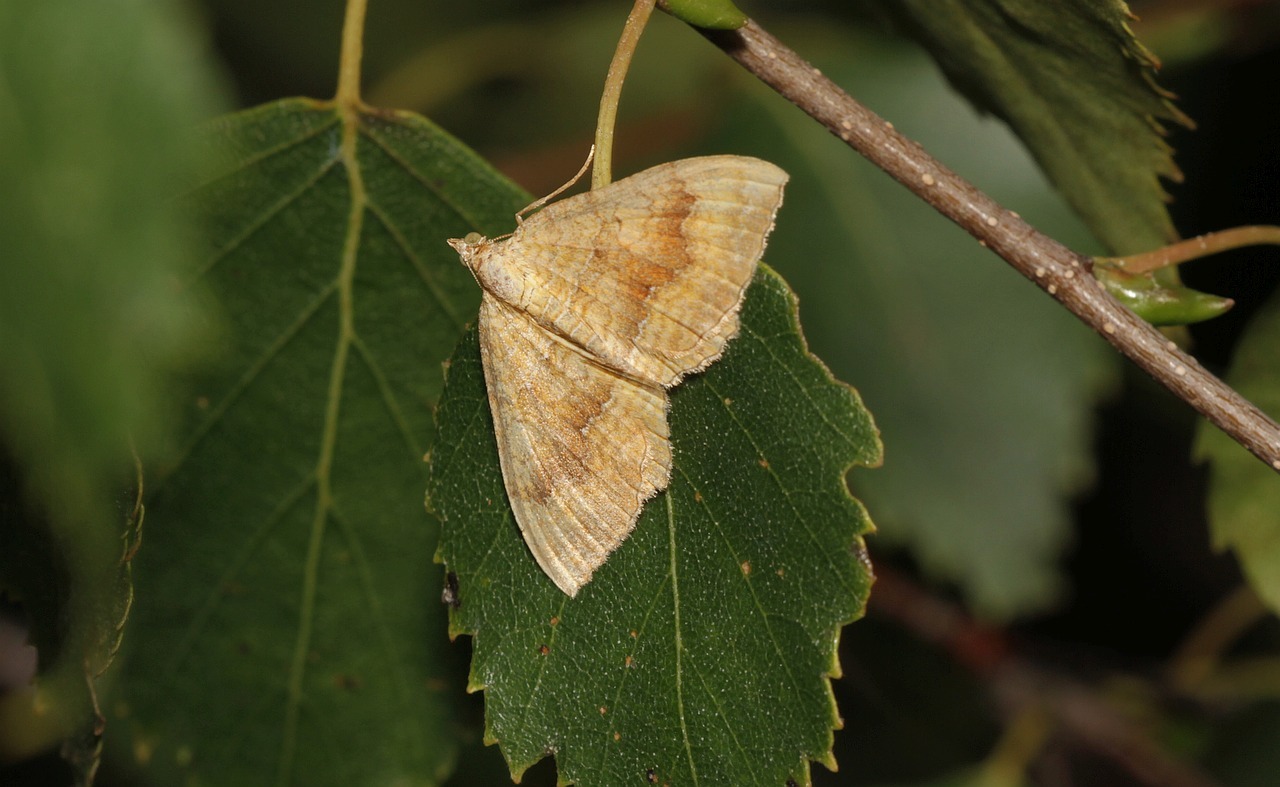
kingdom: Animalia
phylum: Arthropoda
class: Insecta
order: Lepidoptera
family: Geometridae
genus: Camptogramma
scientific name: Camptogramma bilineata
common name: Yellow shell
